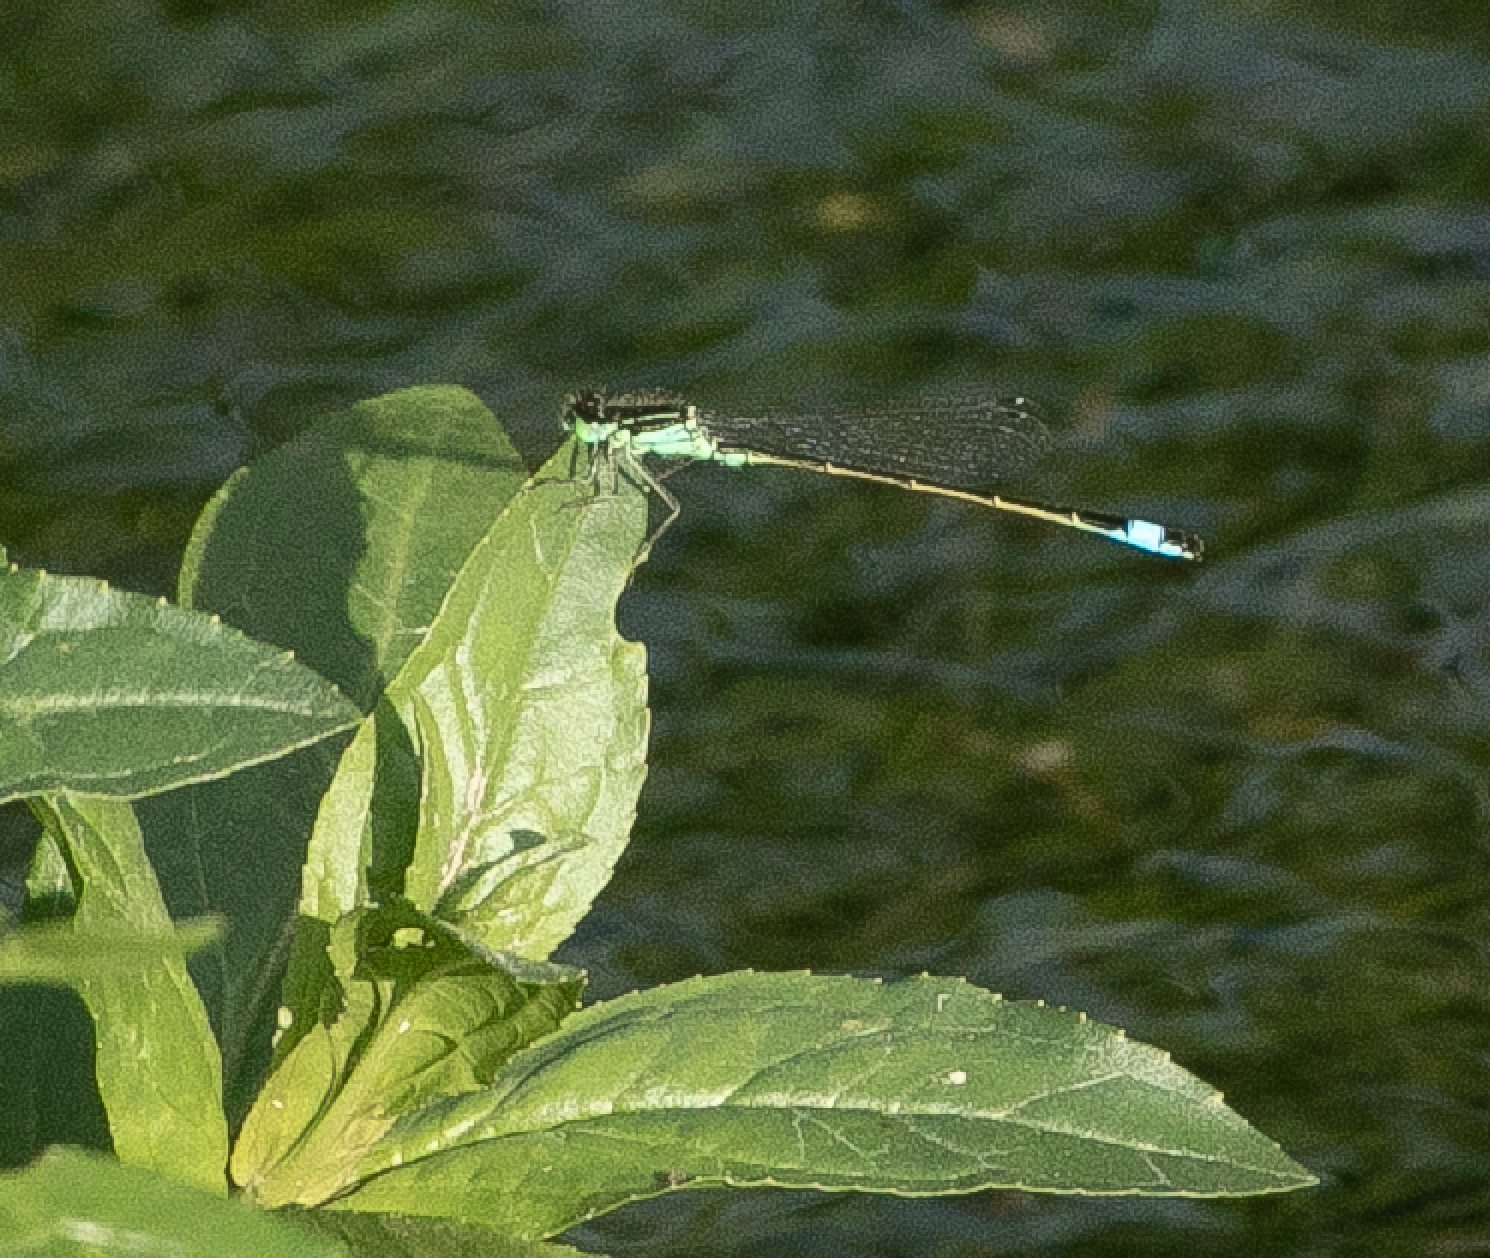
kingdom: Animalia
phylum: Arthropoda
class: Insecta
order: Odonata
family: Coenagrionidae
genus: Ischnura
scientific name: Ischnura elegans
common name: Blue-tailed damselfly
